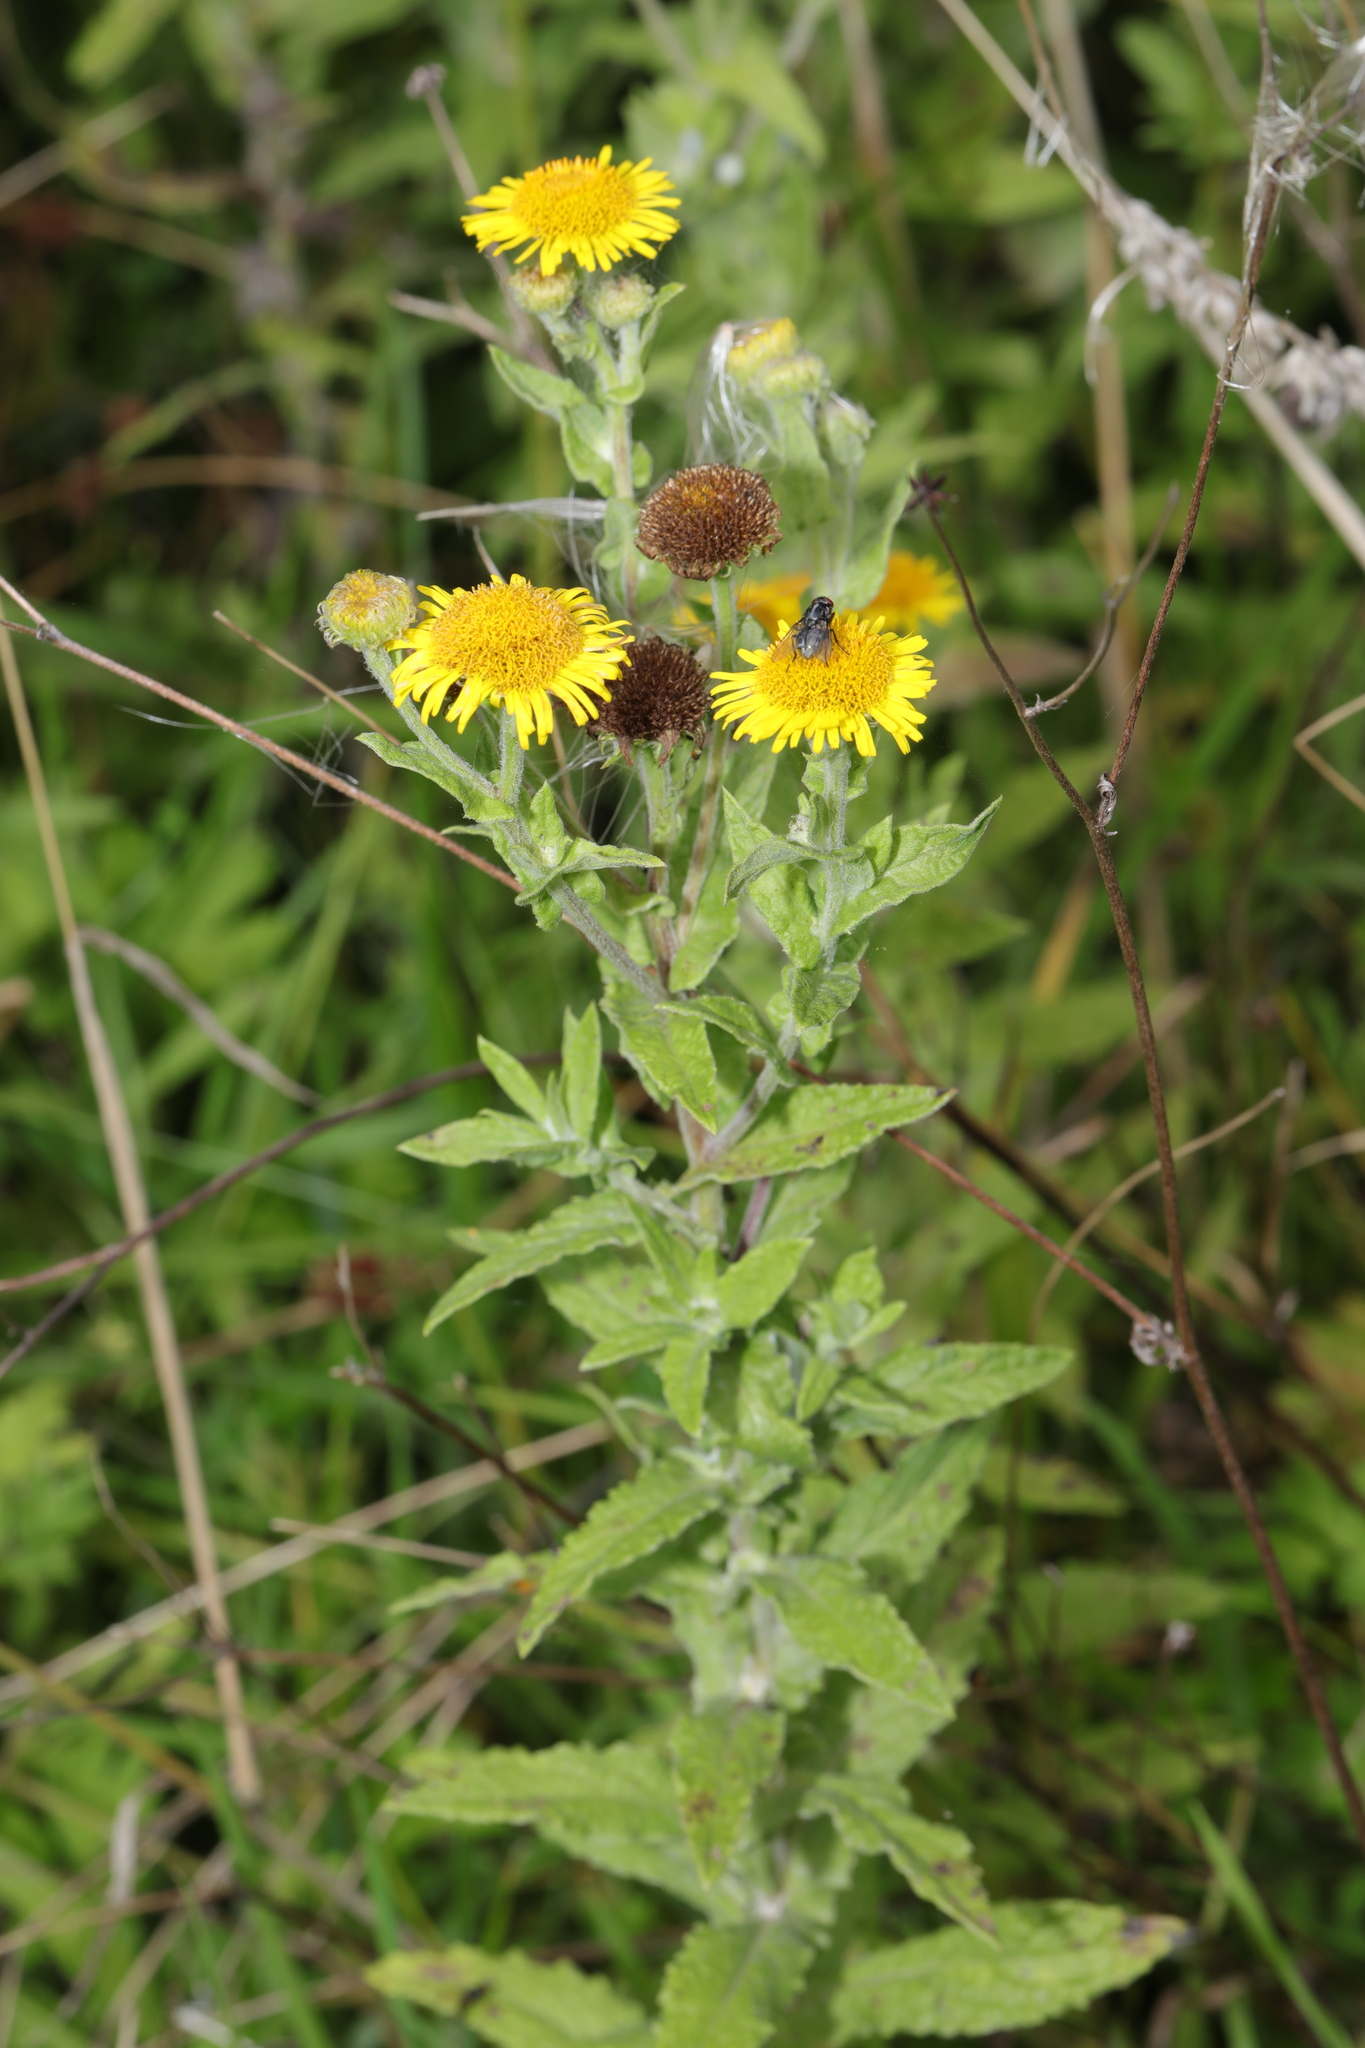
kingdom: Plantae
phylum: Tracheophyta
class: Magnoliopsida
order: Asterales
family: Asteraceae
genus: Pulicaria
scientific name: Pulicaria dysenterica
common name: Common fleabane
